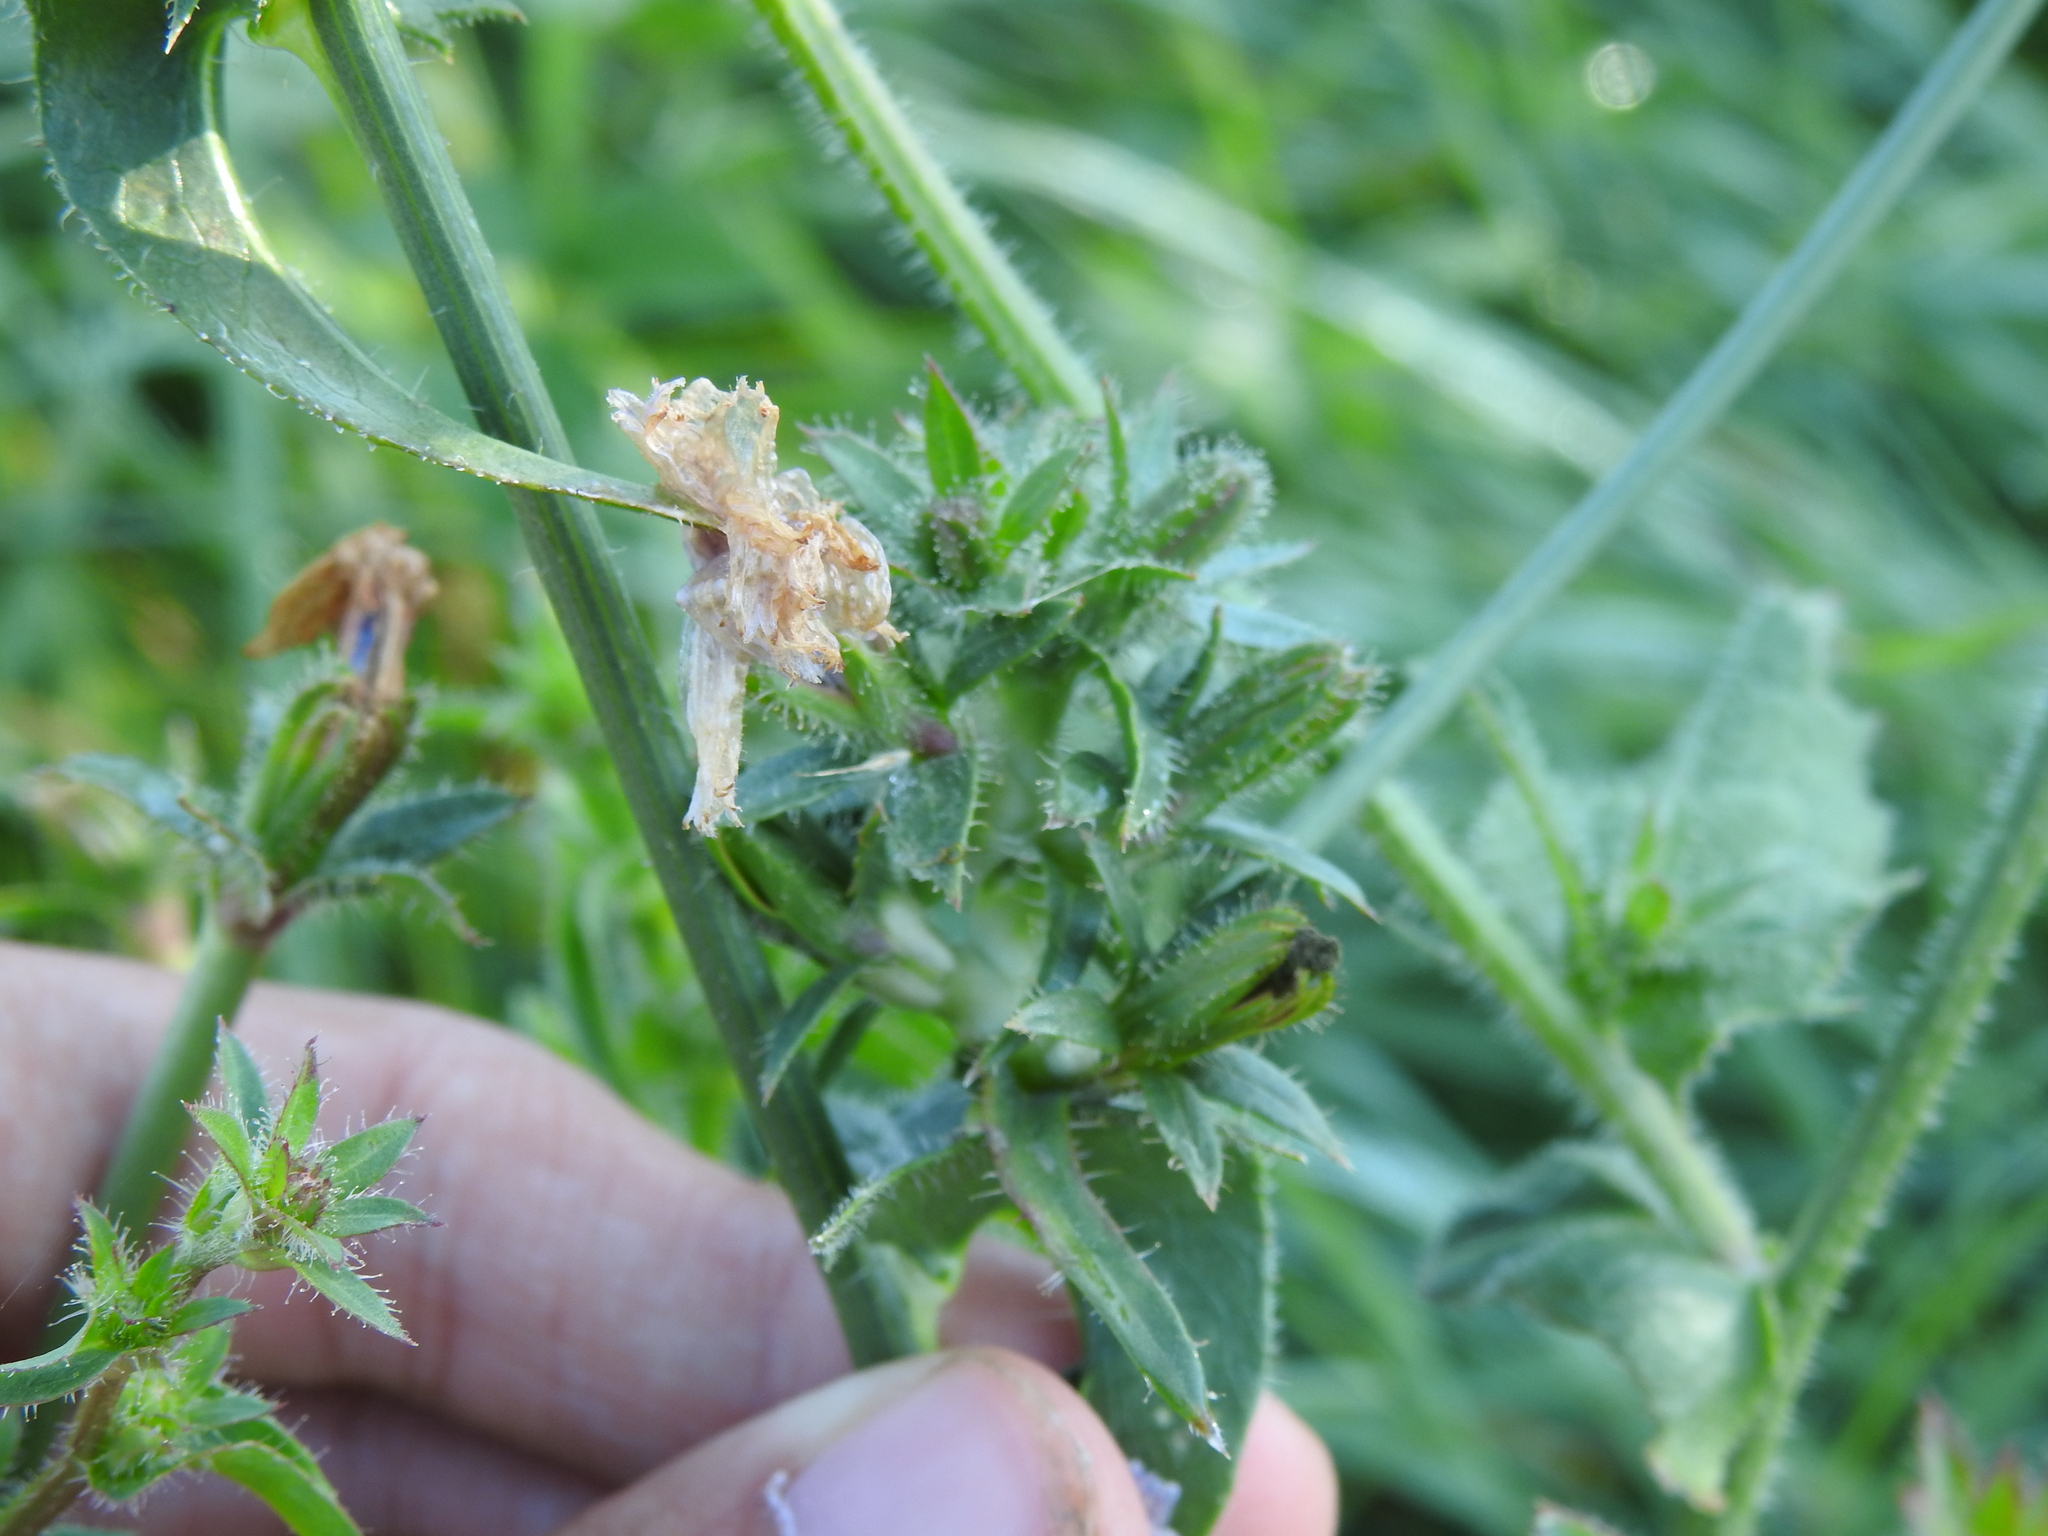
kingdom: Plantae
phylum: Tracheophyta
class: Magnoliopsida
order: Asterales
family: Asteraceae
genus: Cichorium
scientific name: Cichorium intybus
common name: Chicory
